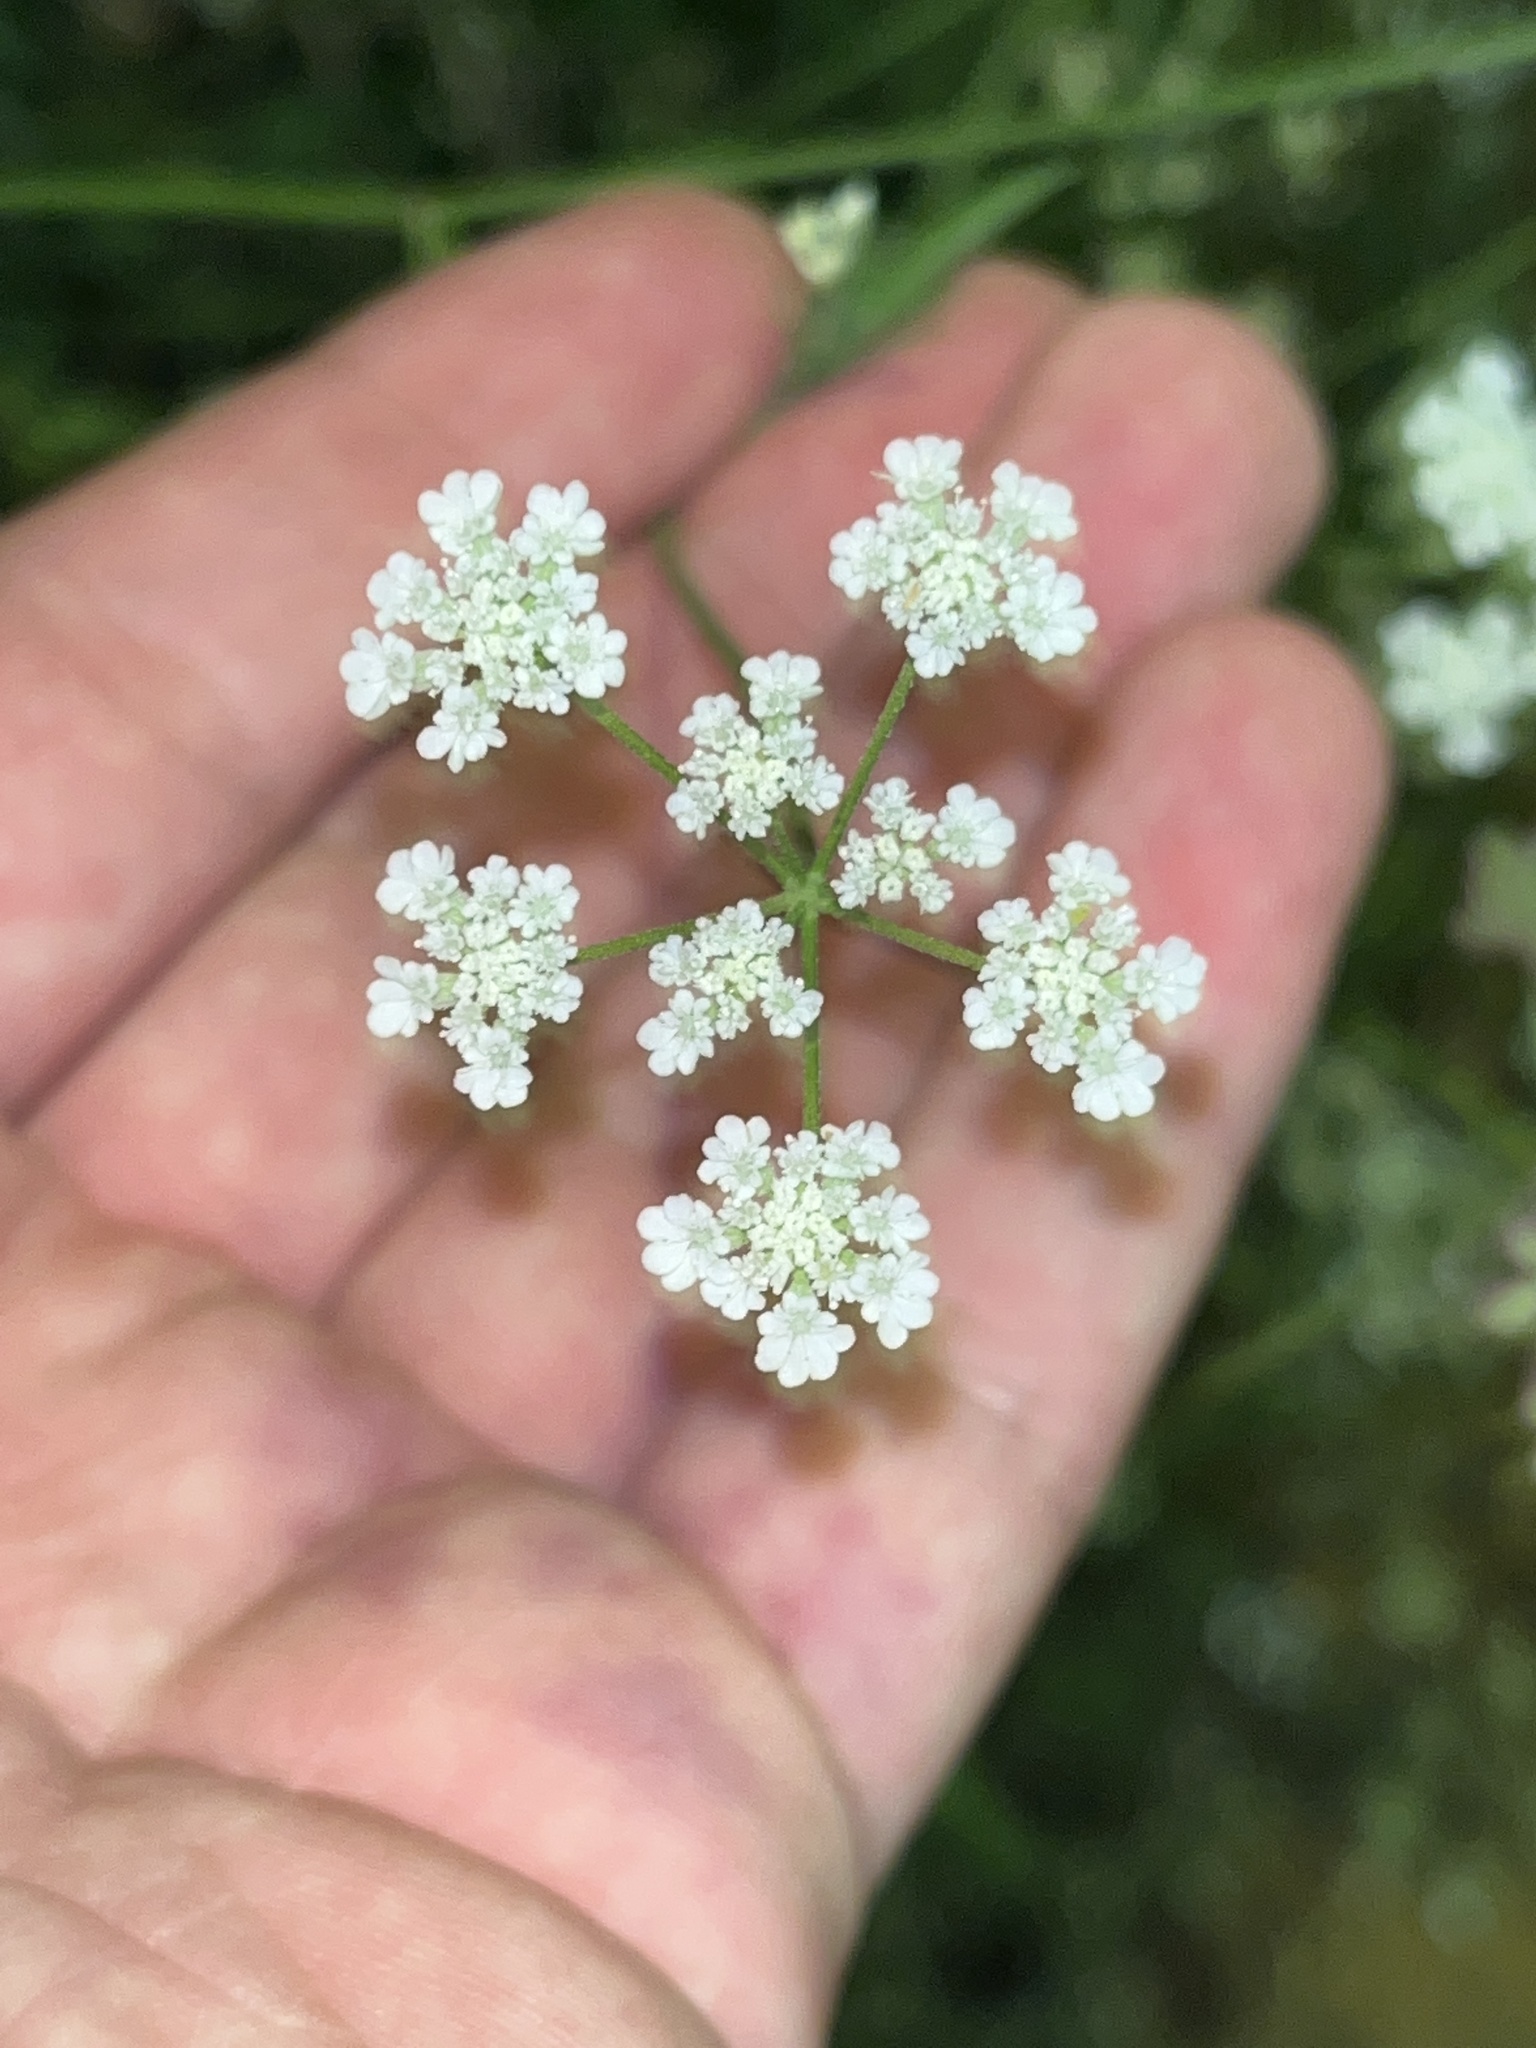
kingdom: Plantae
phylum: Tracheophyta
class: Magnoliopsida
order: Apiales
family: Apiaceae
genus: Torilis
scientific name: Torilis arvensis
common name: Spreading hedge-parsley
